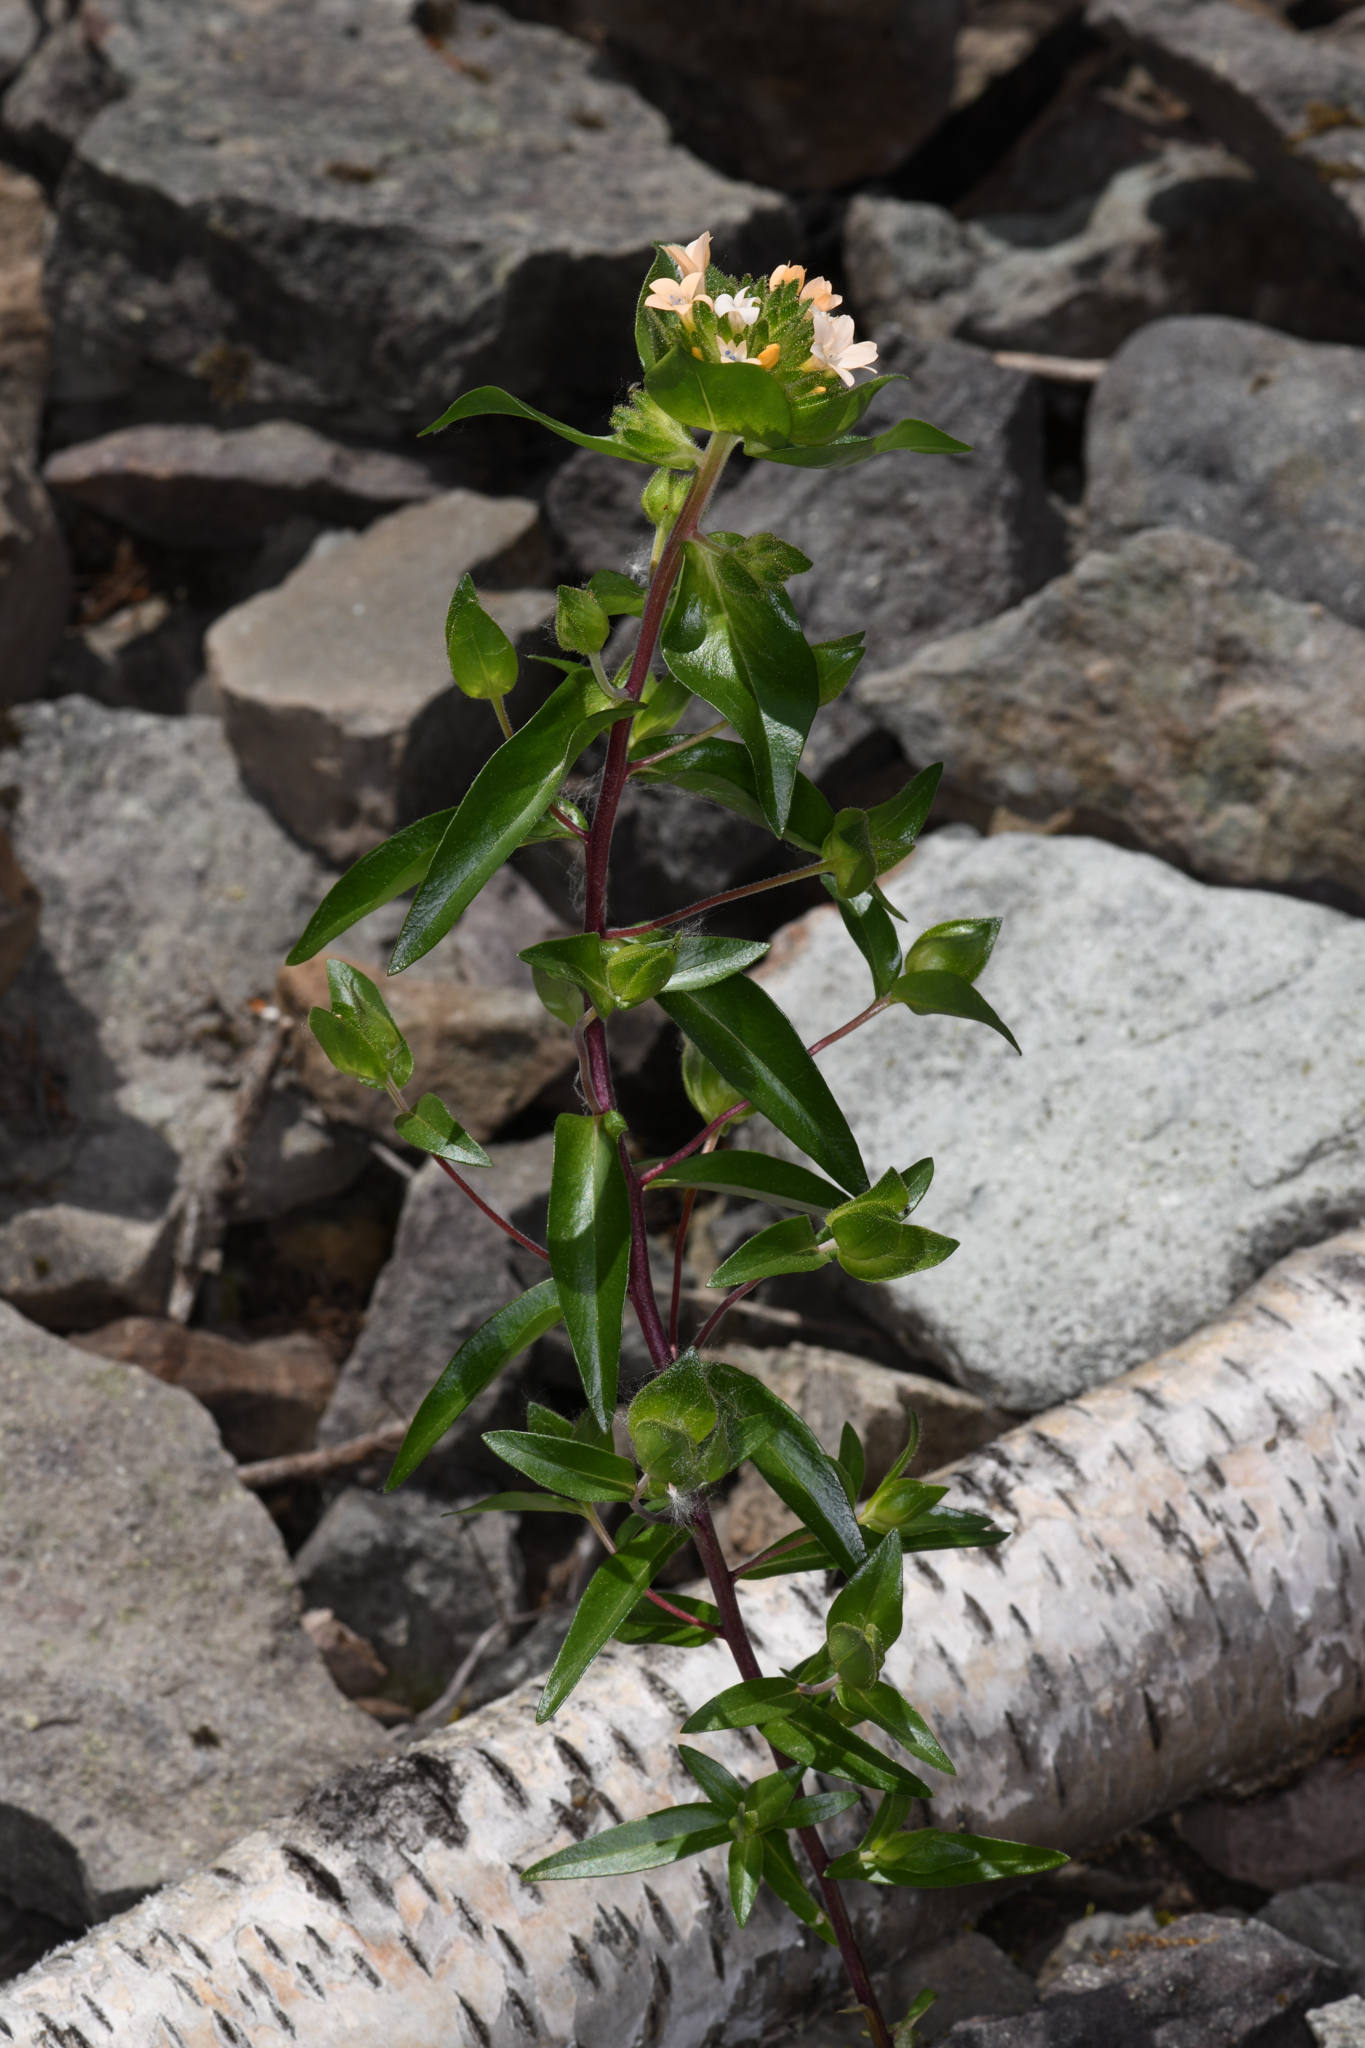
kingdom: Plantae
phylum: Tracheophyta
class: Magnoliopsida
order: Ericales
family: Polemoniaceae
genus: Collomia
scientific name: Collomia grandiflora
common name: California strawflower
